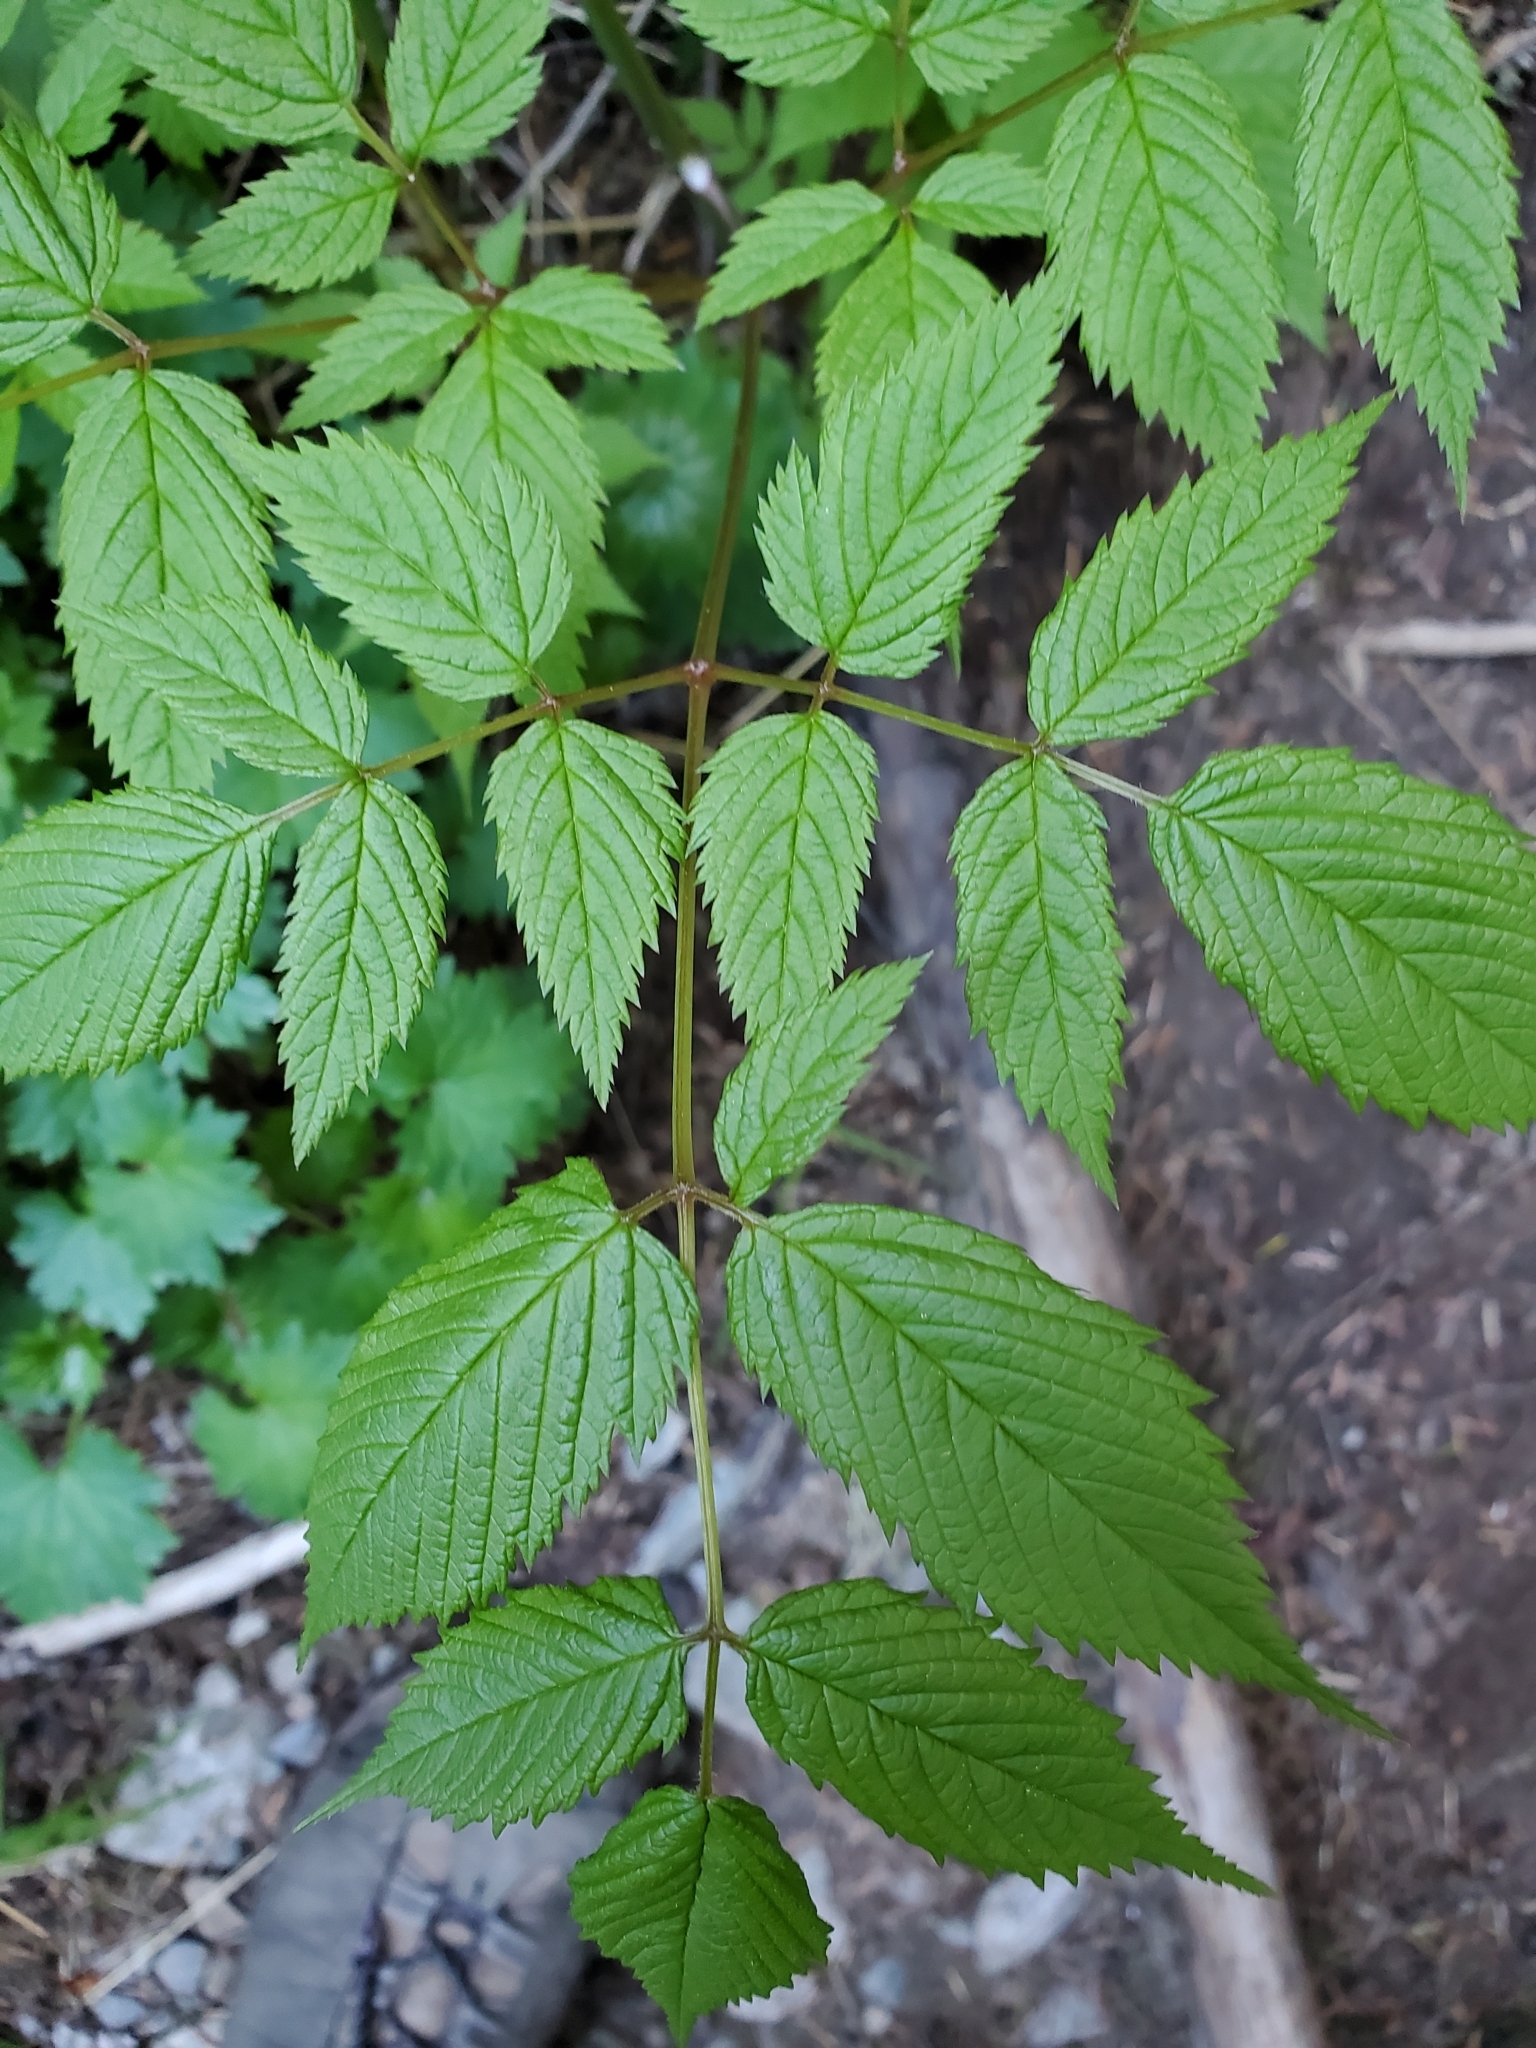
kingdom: Plantae
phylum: Tracheophyta
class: Magnoliopsida
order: Rosales
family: Rosaceae
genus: Aruncus
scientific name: Aruncus dioicus
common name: Buck's-beard
